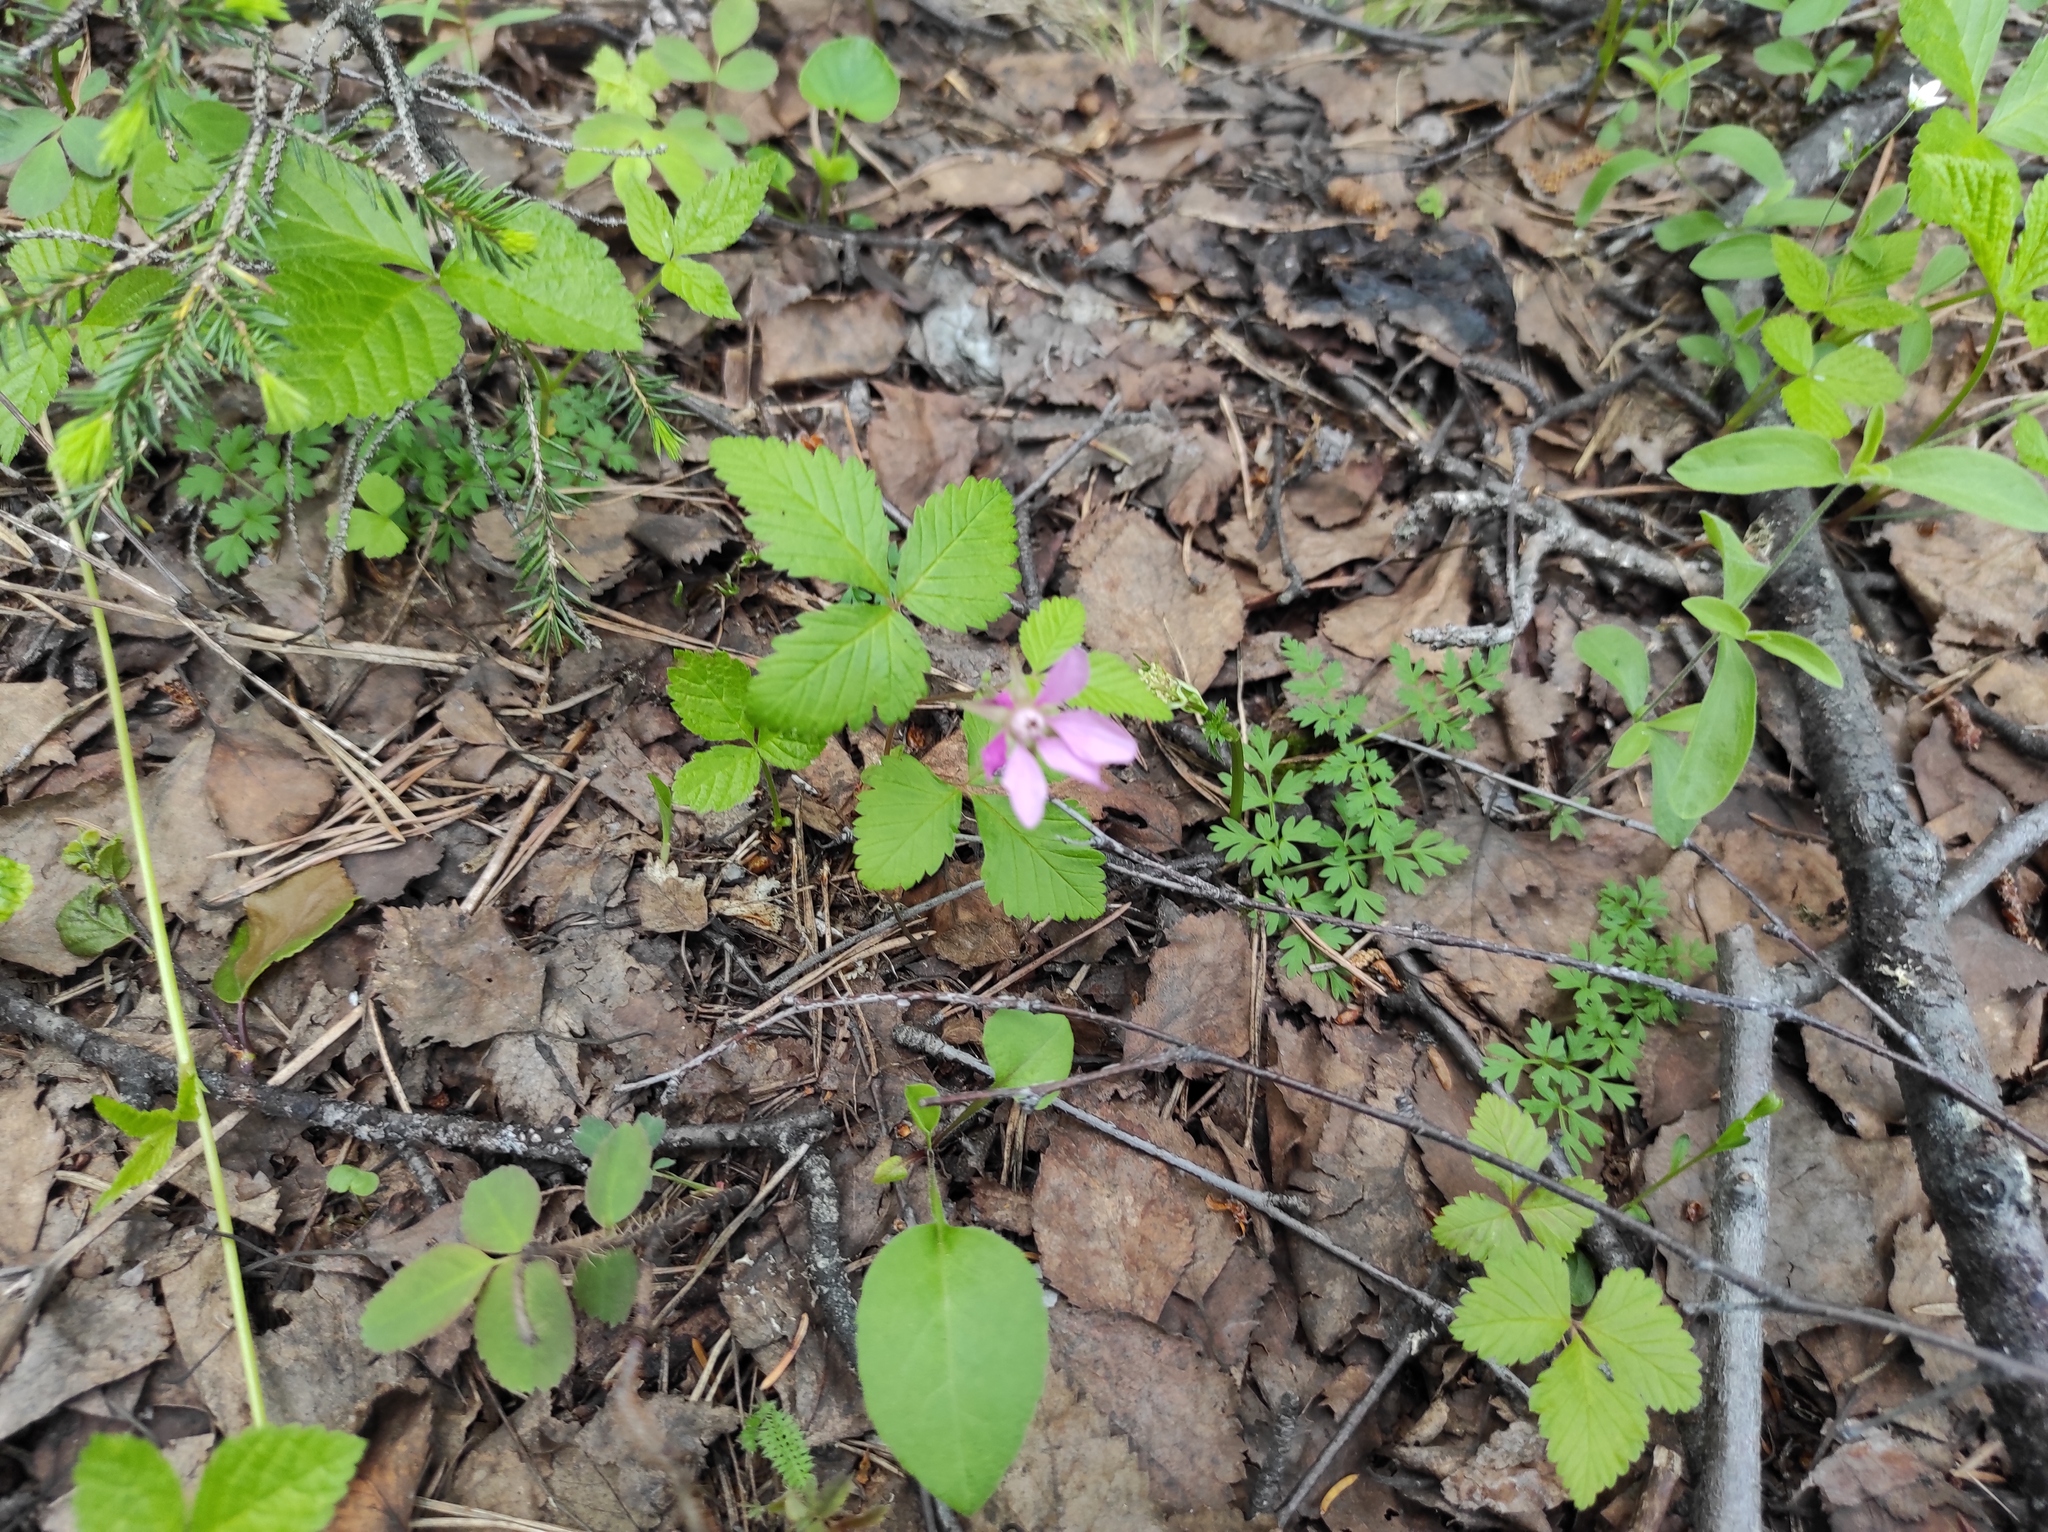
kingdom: Plantae
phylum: Tracheophyta
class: Magnoliopsida
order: Apiales
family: Apiaceae
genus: Aegopodium
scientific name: Aegopodium alpestre
